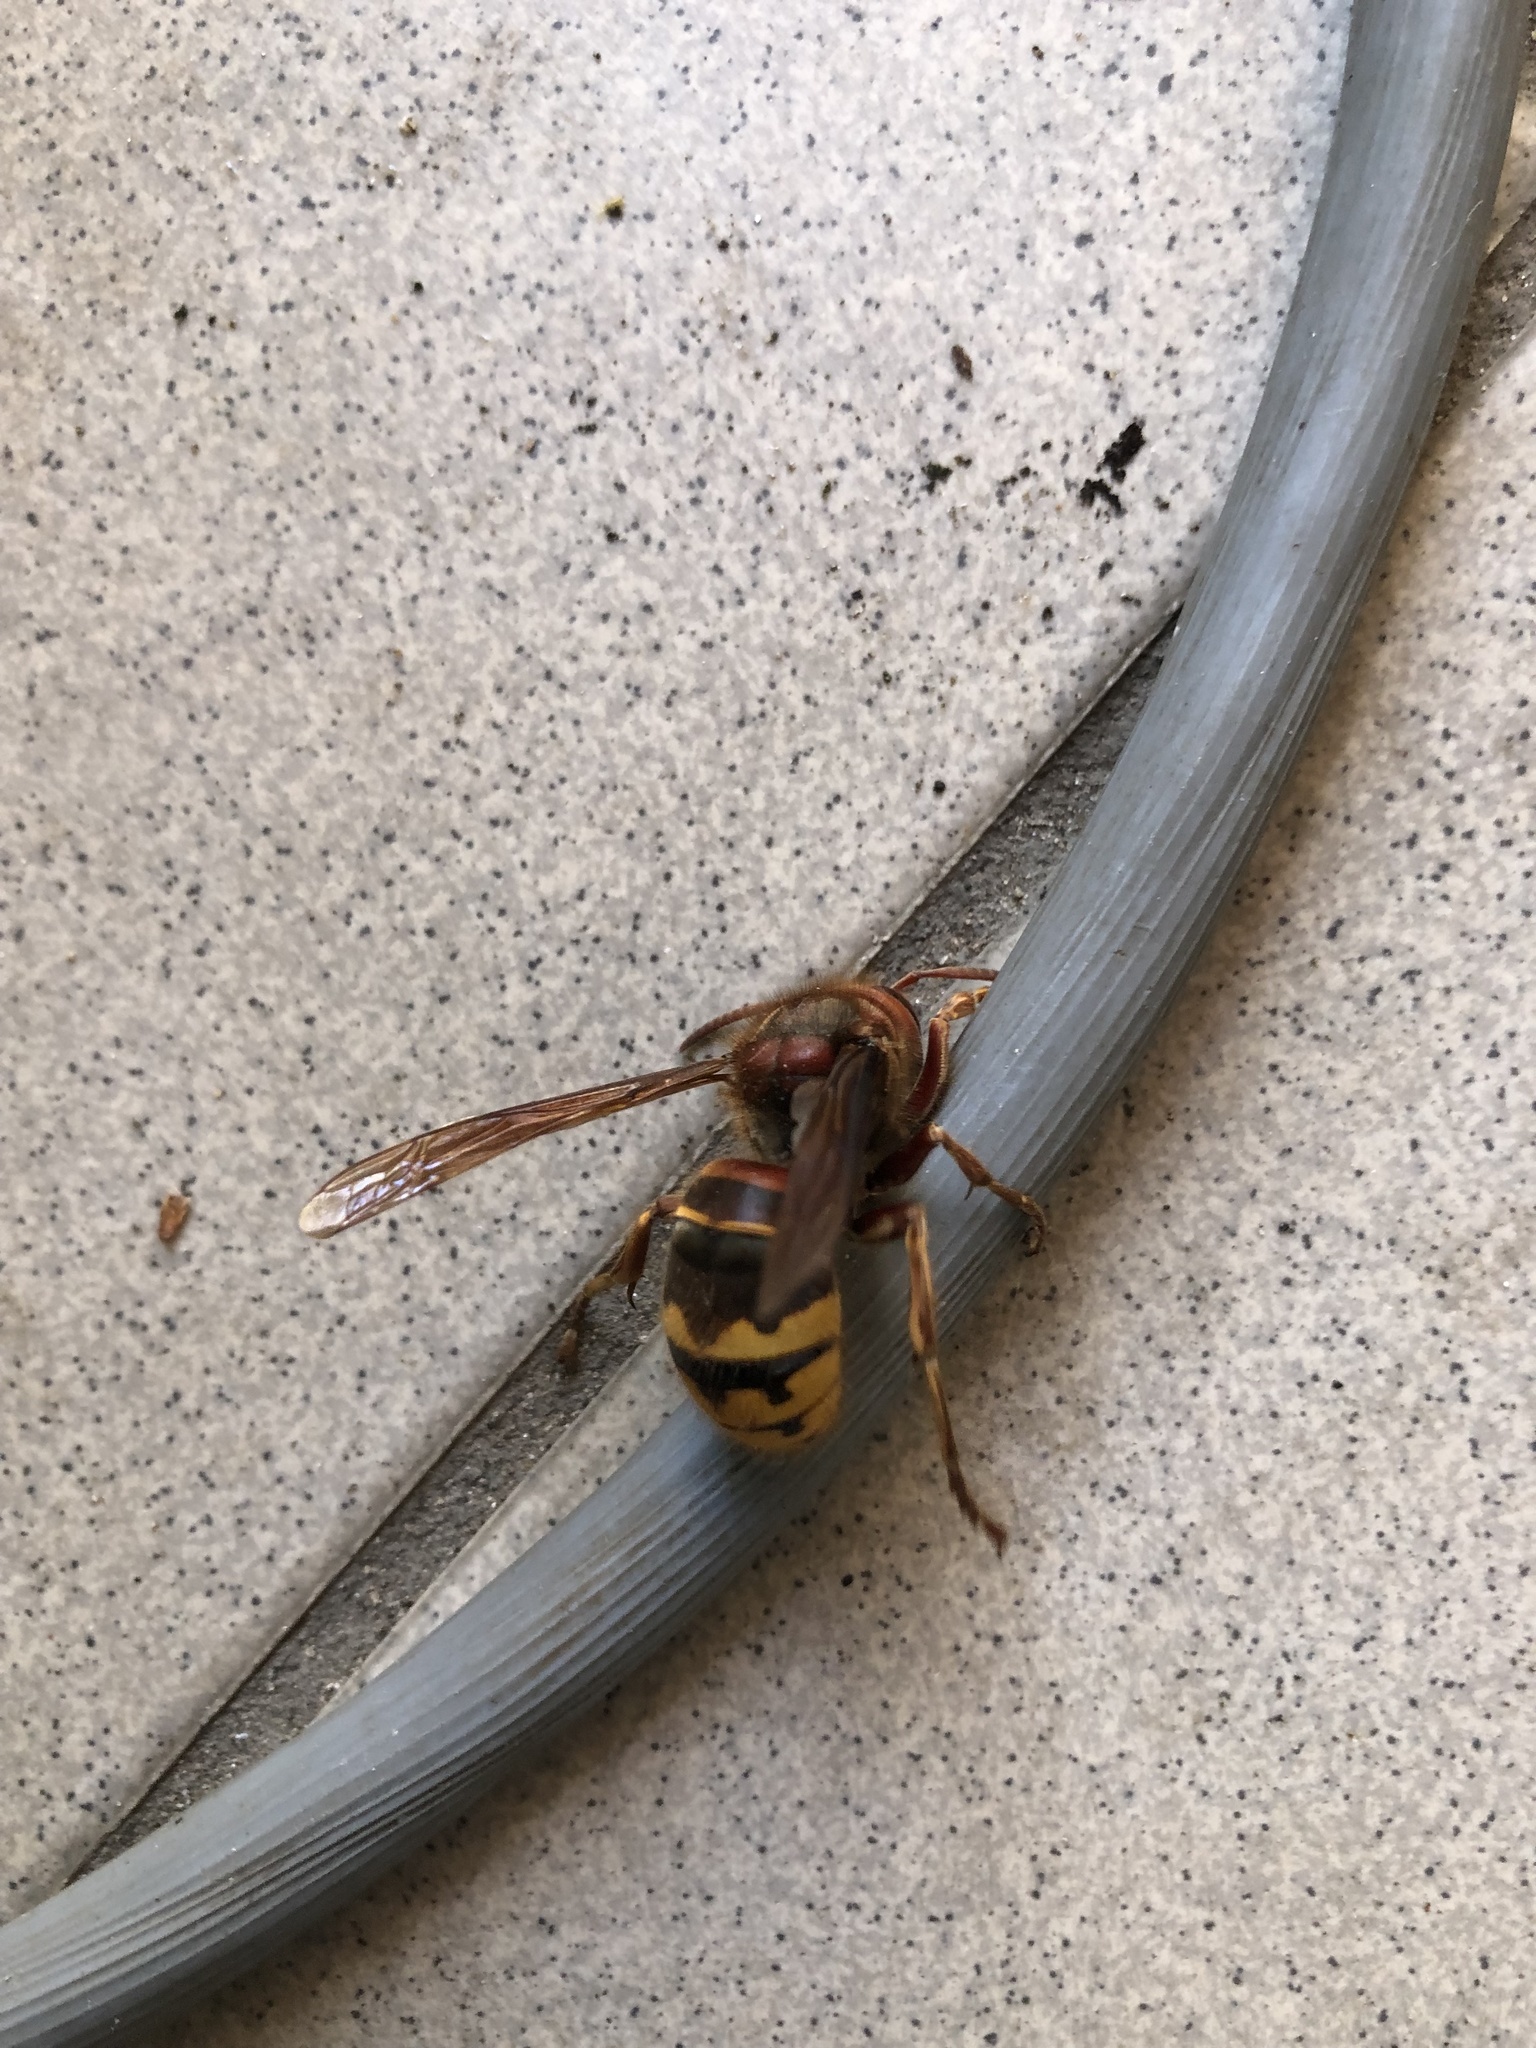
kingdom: Animalia
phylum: Arthropoda
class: Insecta
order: Hymenoptera
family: Vespidae
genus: Vespa
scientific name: Vespa crabro
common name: Hornet
